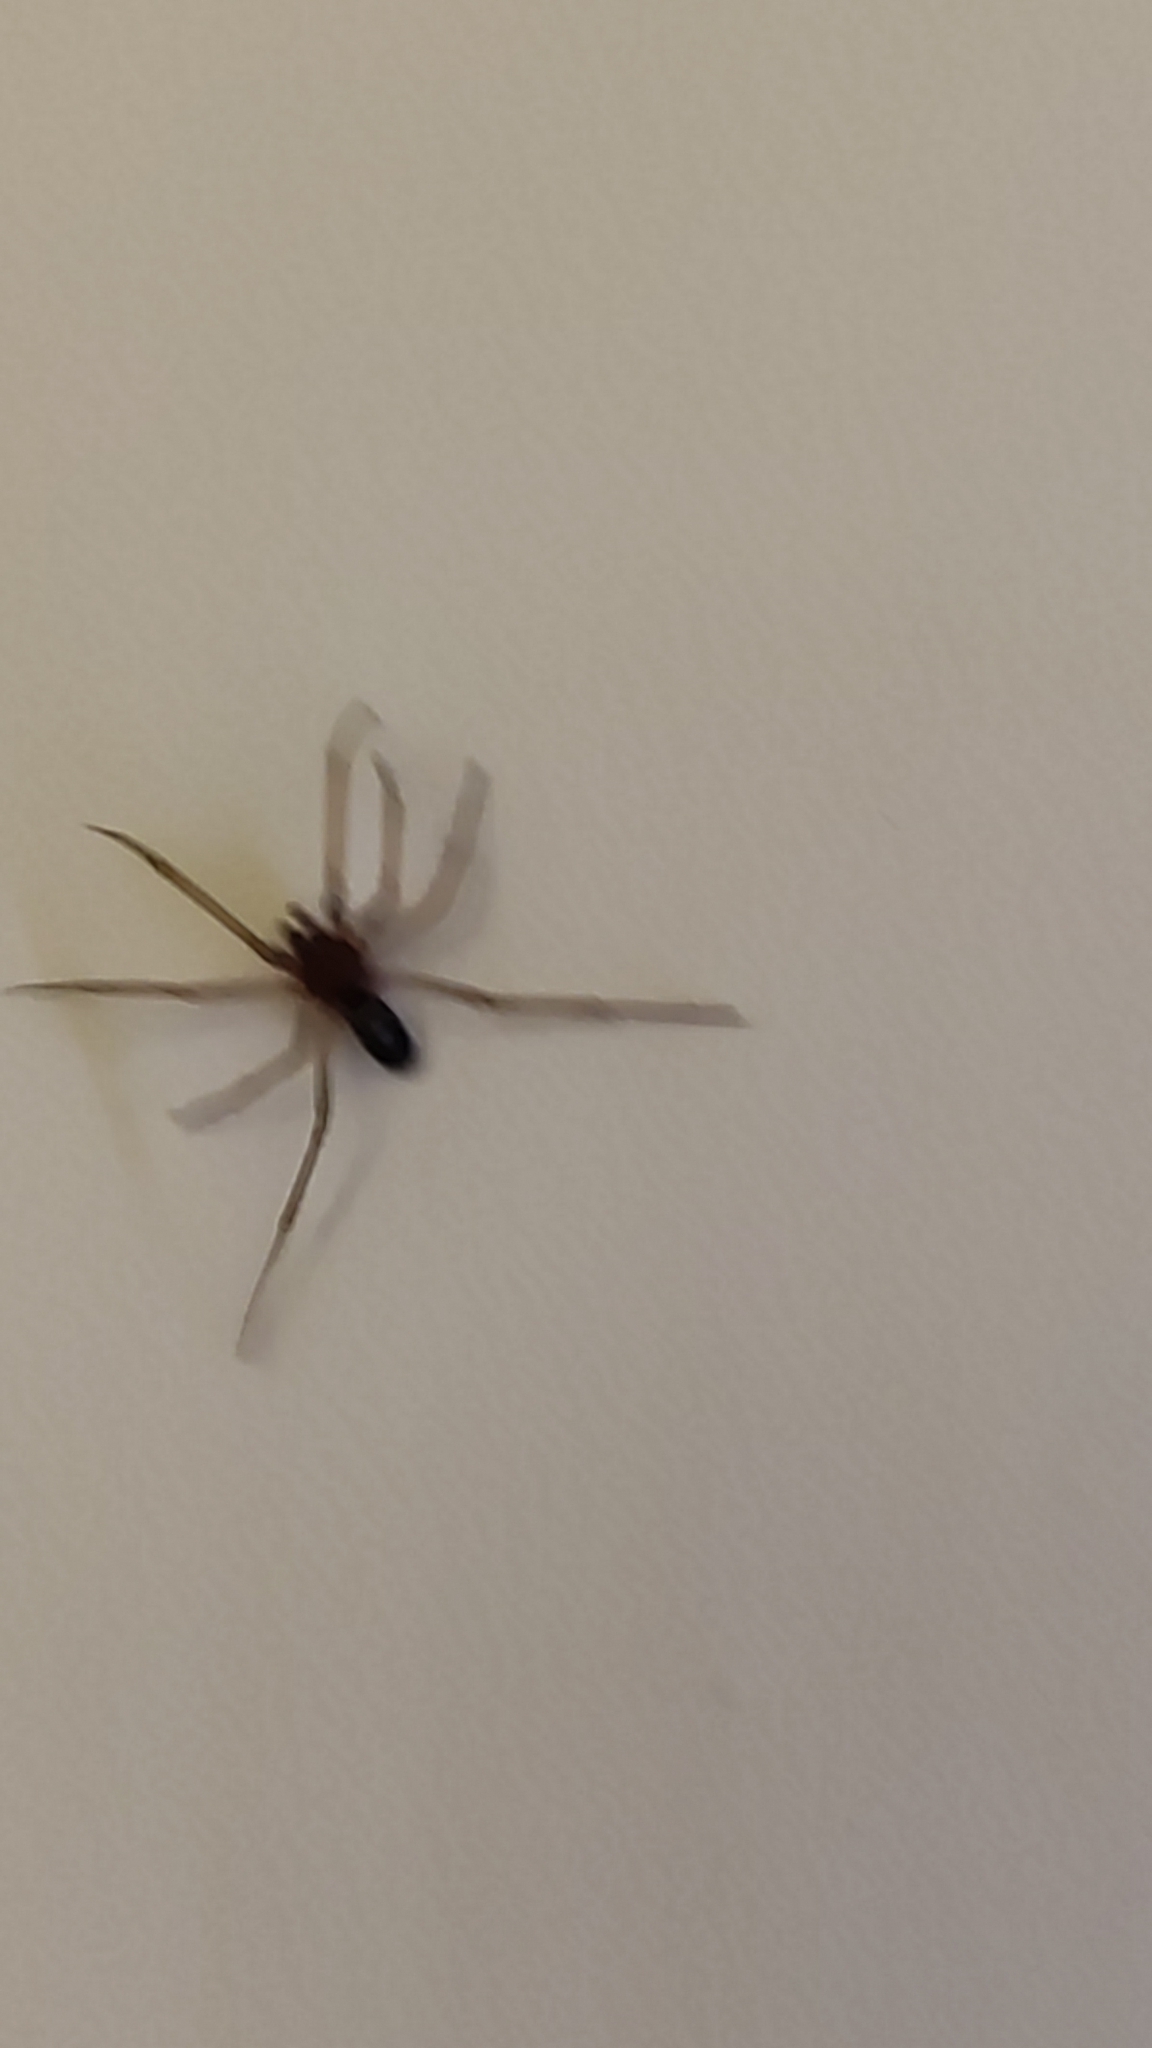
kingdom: Animalia
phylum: Arthropoda
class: Arachnida
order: Araneae
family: Theridiidae
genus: Steatoda
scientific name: Steatoda grossa
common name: False black widow
